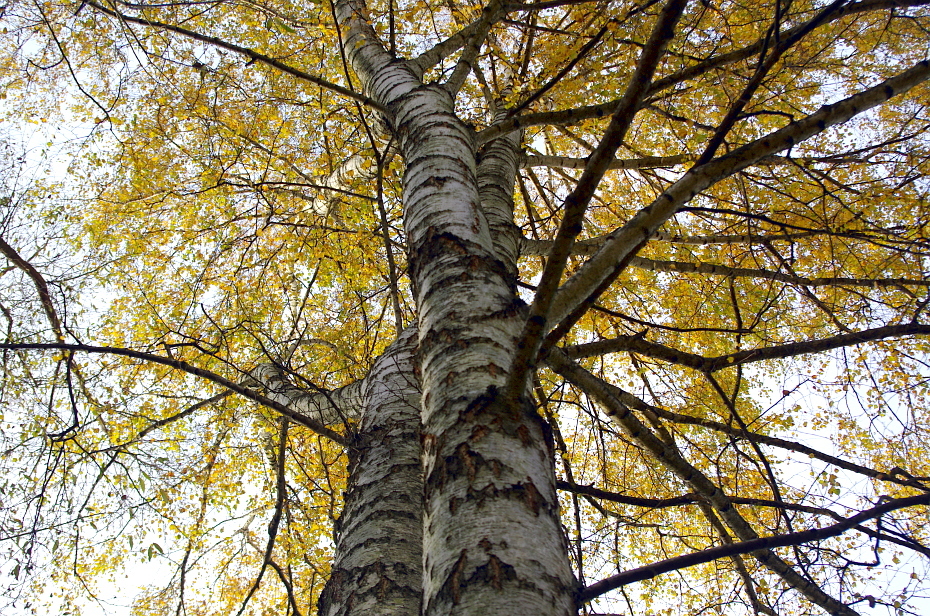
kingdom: Plantae
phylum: Tracheophyta
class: Magnoliopsida
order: Fagales
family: Betulaceae
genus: Betula
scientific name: Betula pendula
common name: Silver birch
